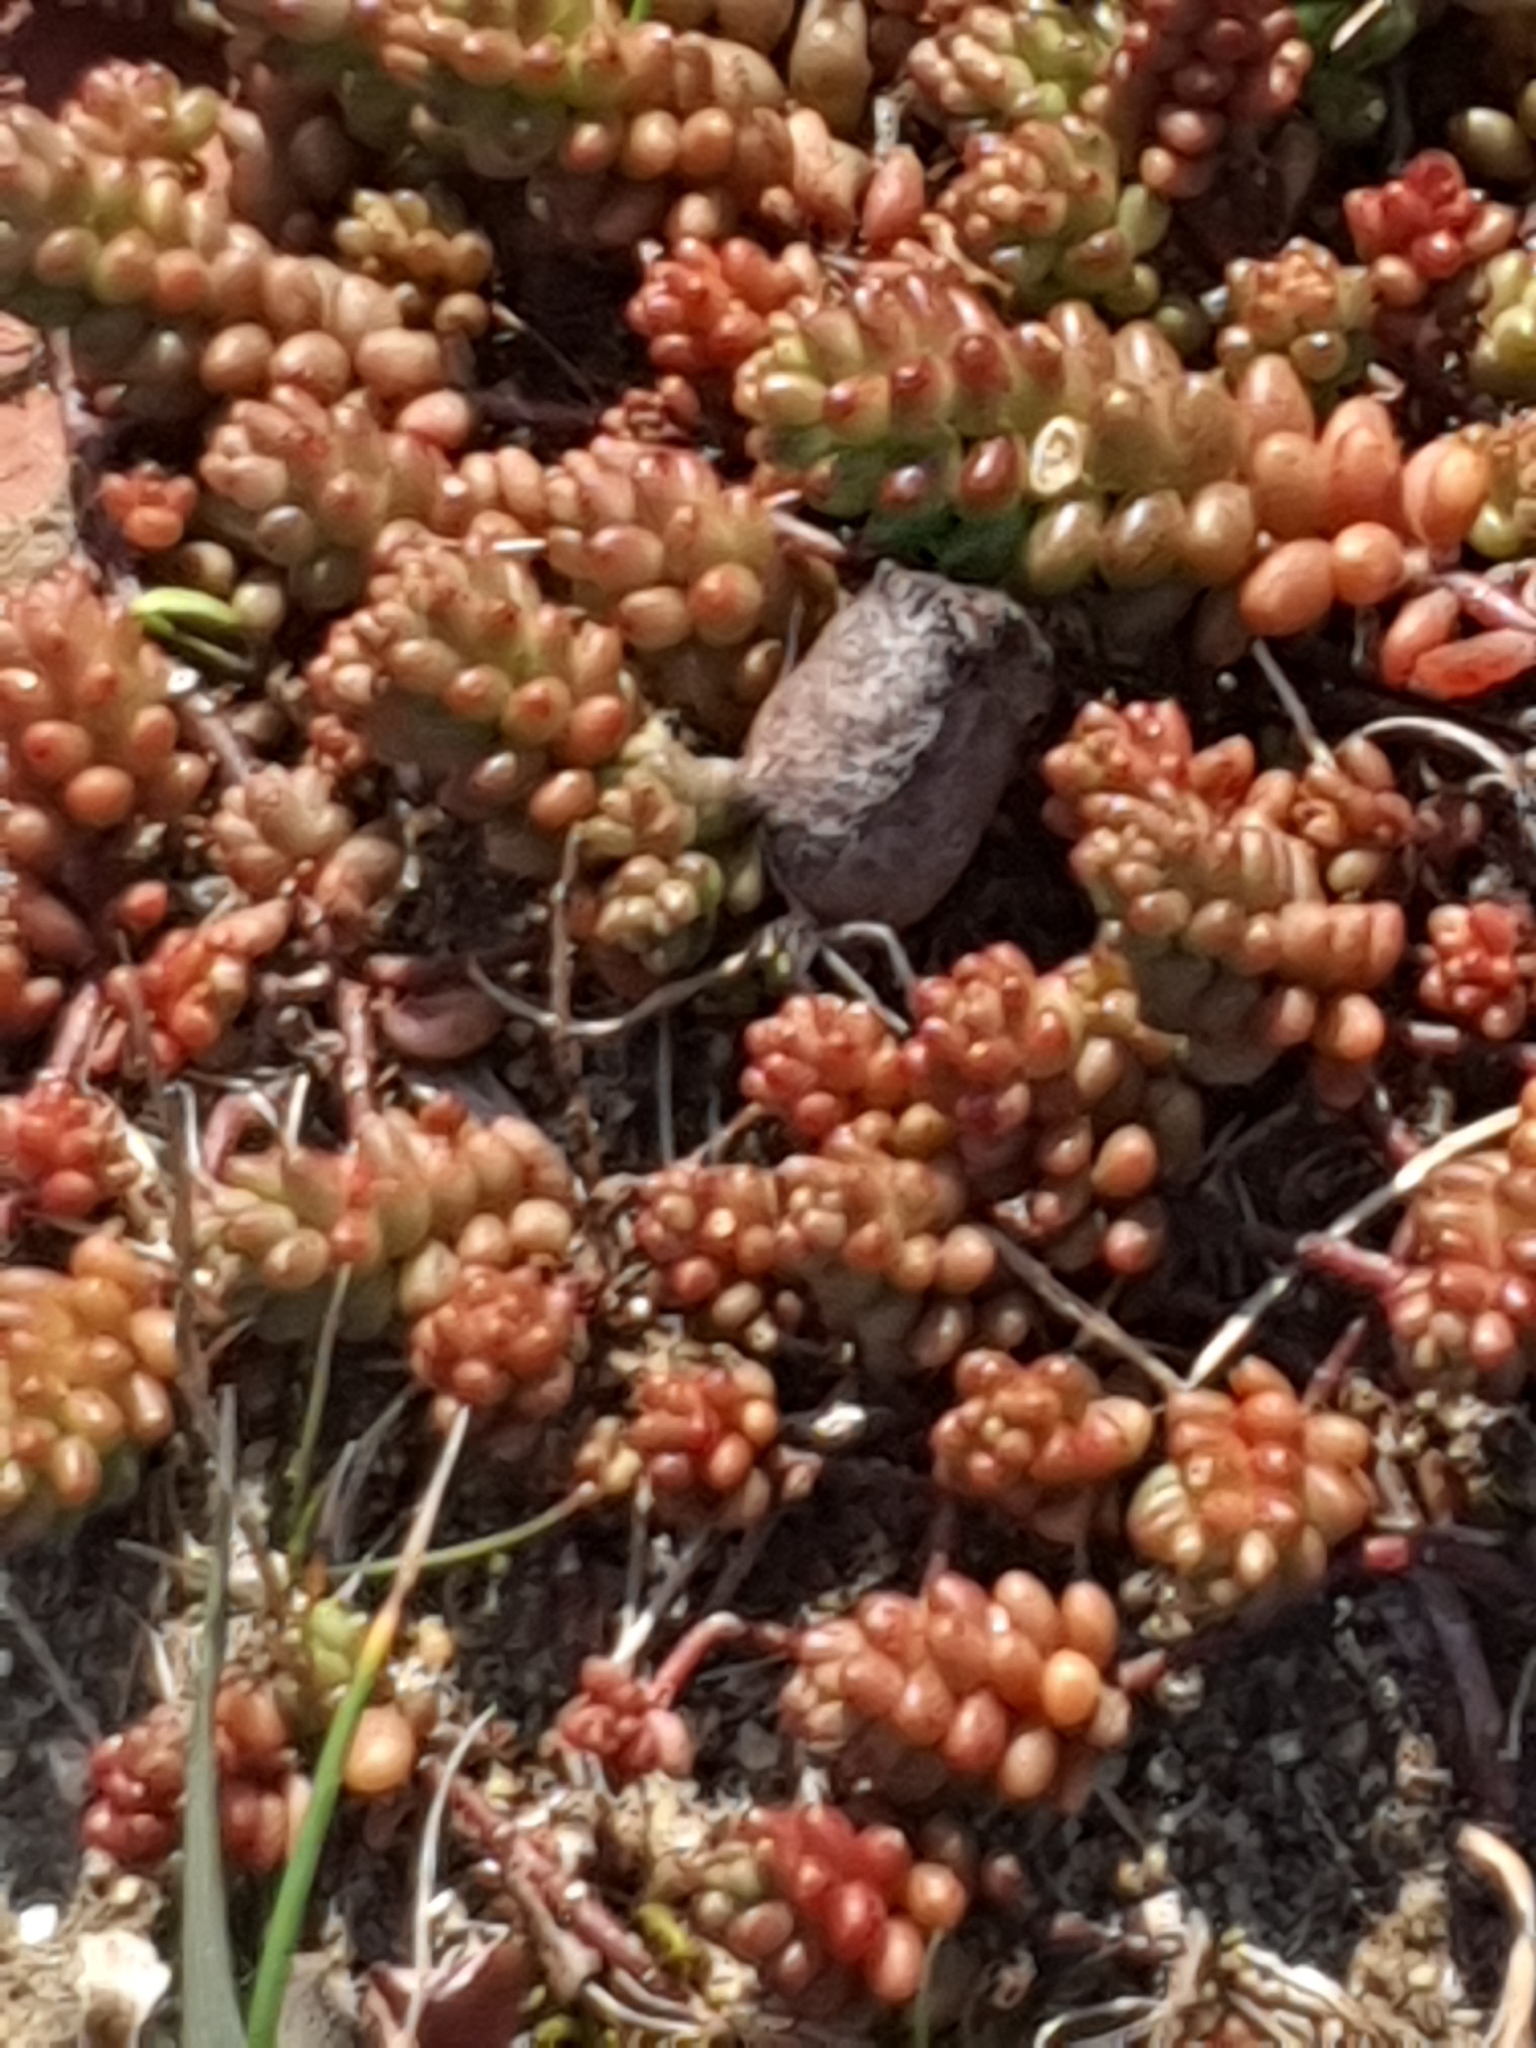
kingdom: Plantae
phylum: Tracheophyta
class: Magnoliopsida
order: Saxifragales
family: Crassulaceae
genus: Sedum
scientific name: Sedum album
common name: White stonecrop
